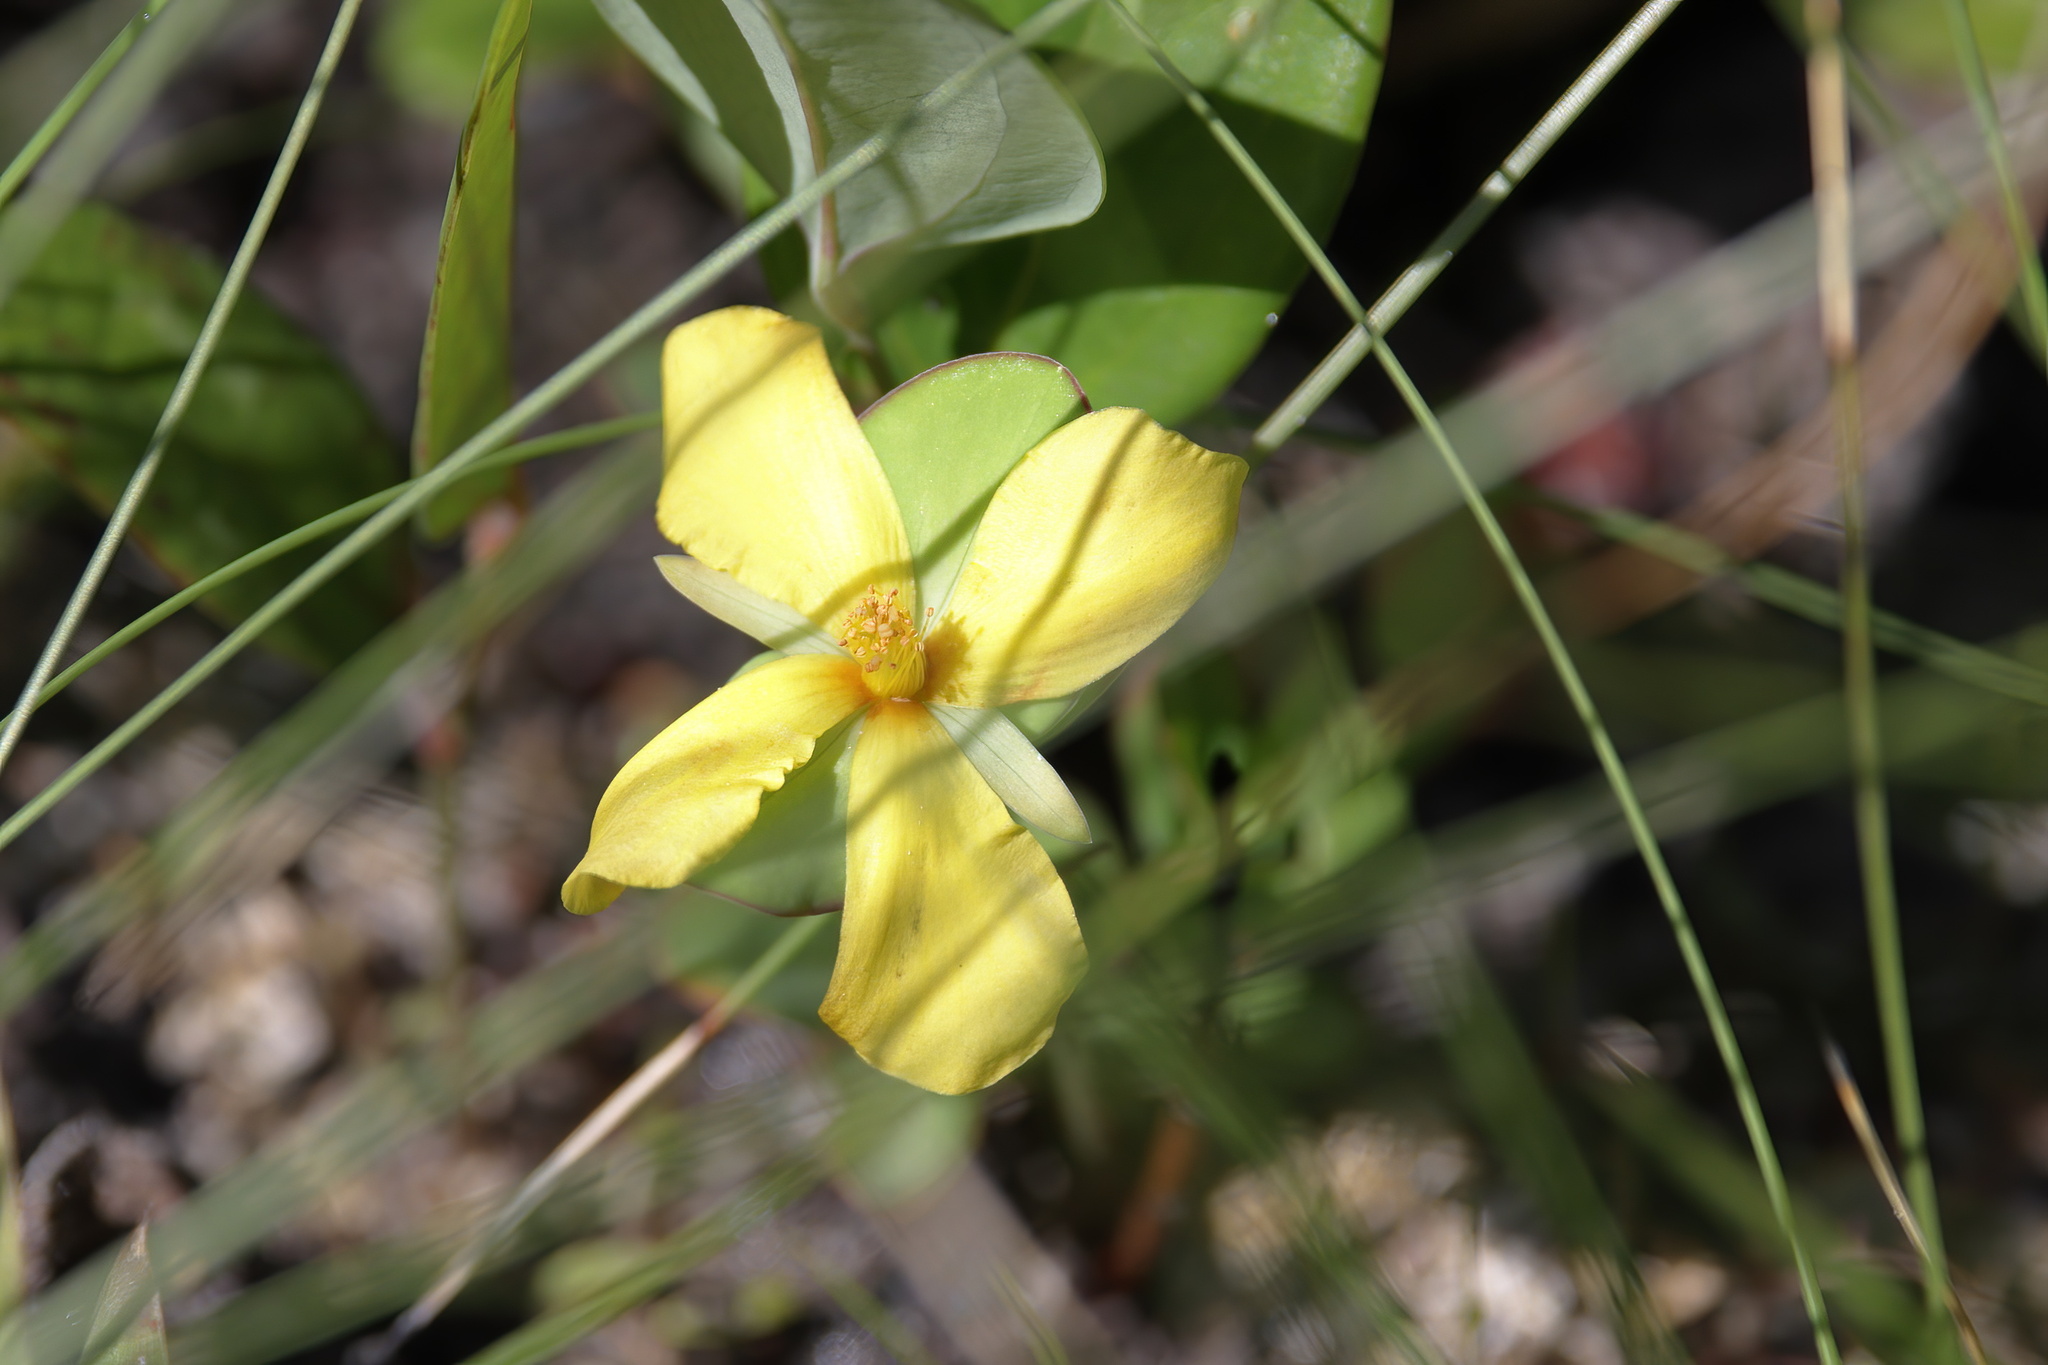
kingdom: Plantae
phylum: Tracheophyta
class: Magnoliopsida
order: Malpighiales
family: Hypericaceae
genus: Hypericum
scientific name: Hypericum crux-andreae
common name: St.-peter's-wort
